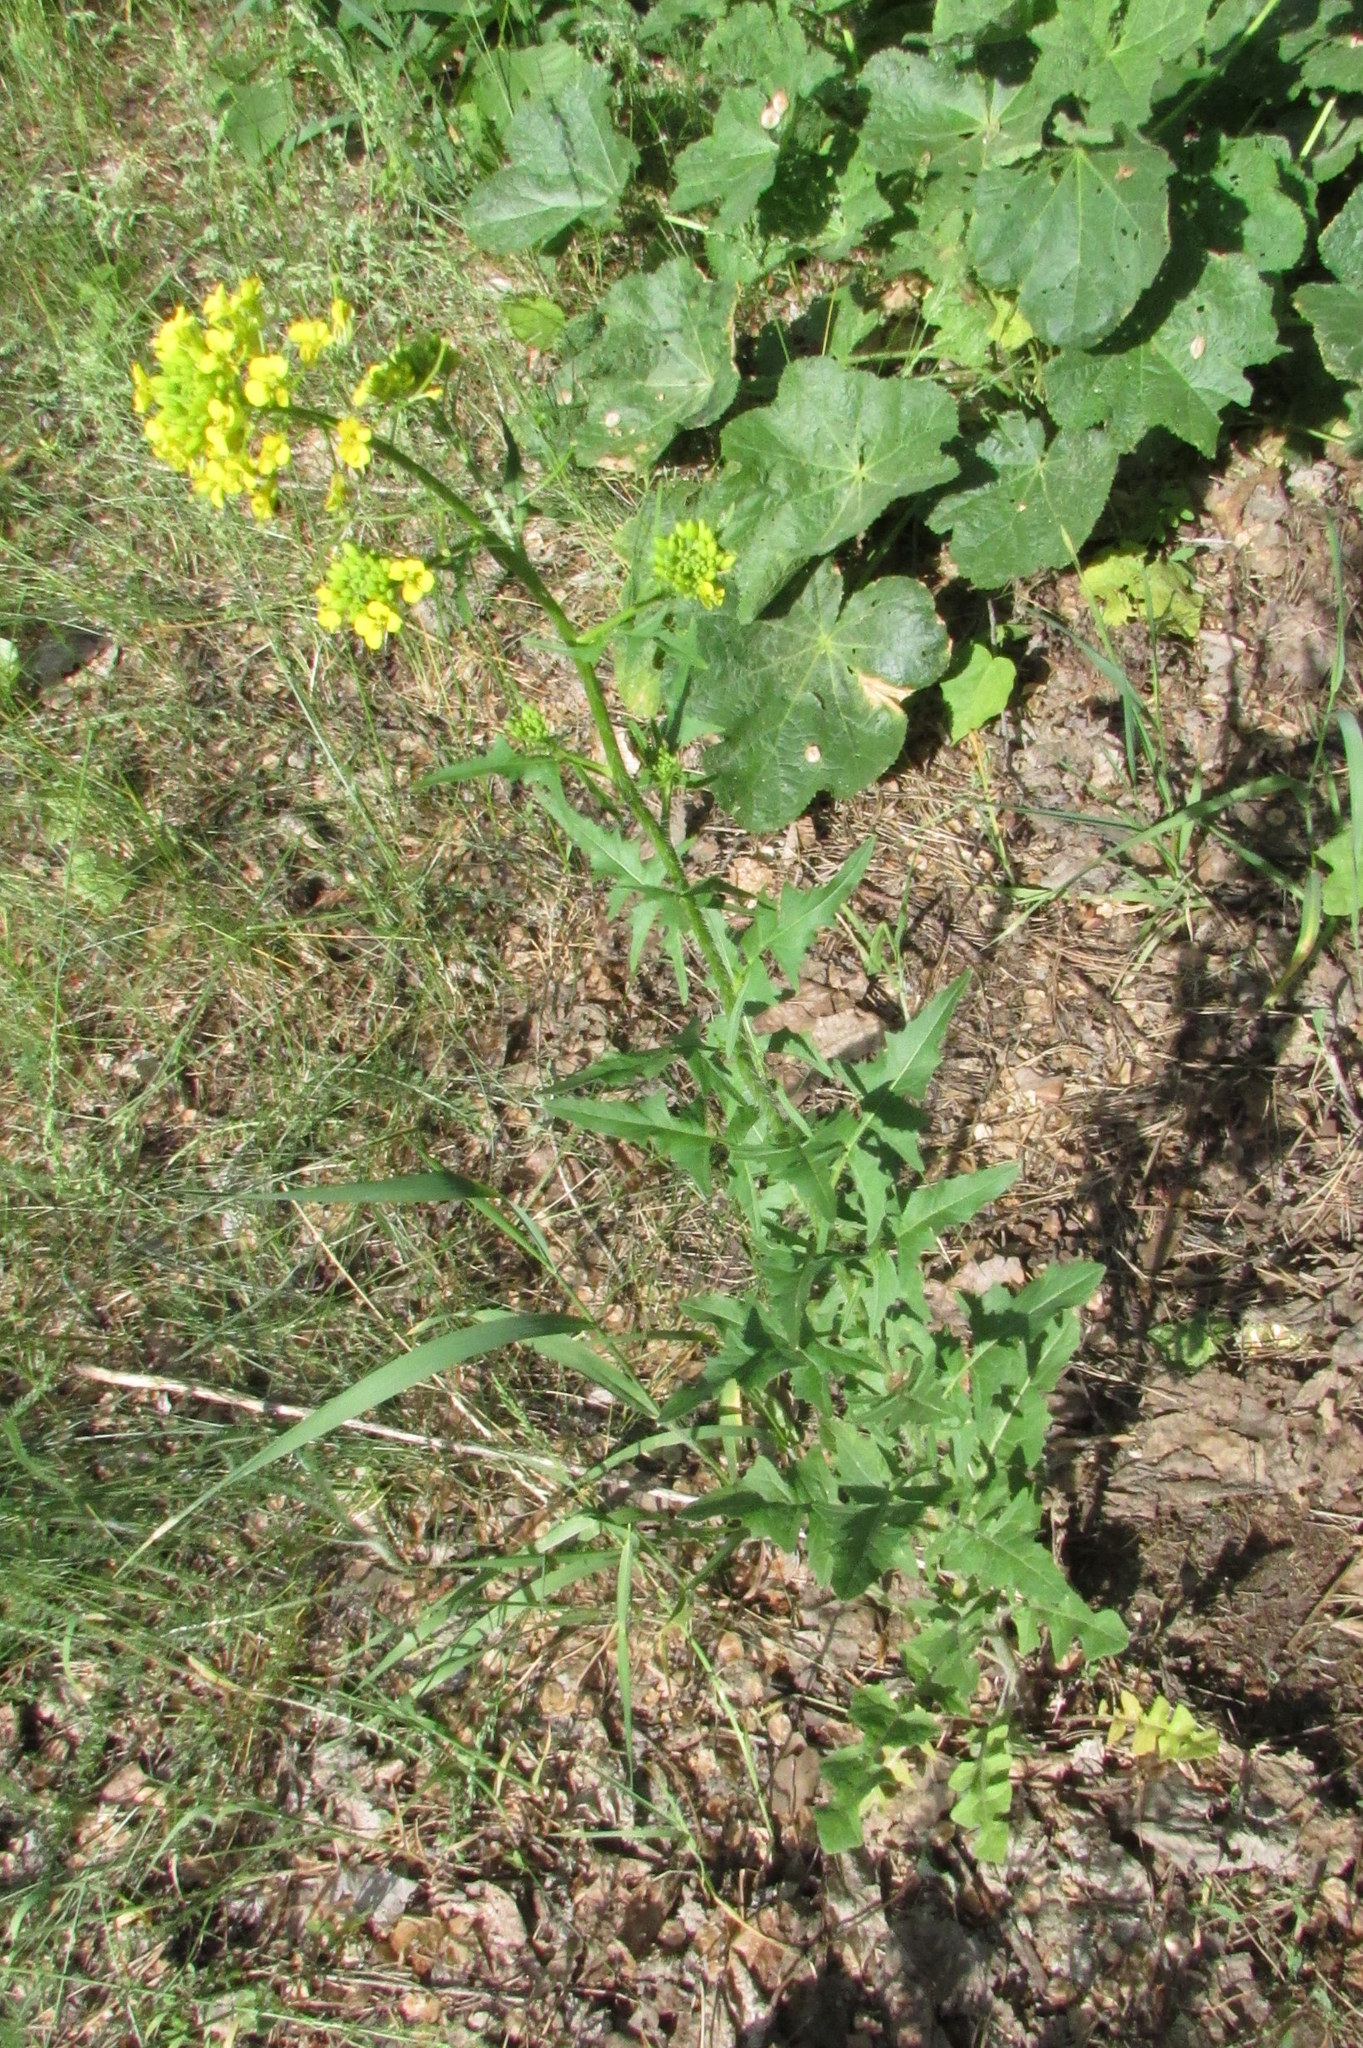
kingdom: Plantae
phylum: Tracheophyta
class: Magnoliopsida
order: Brassicales
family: Brassicaceae
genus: Sisymbrium
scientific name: Sisymbrium loeselii
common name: False london-rocket
